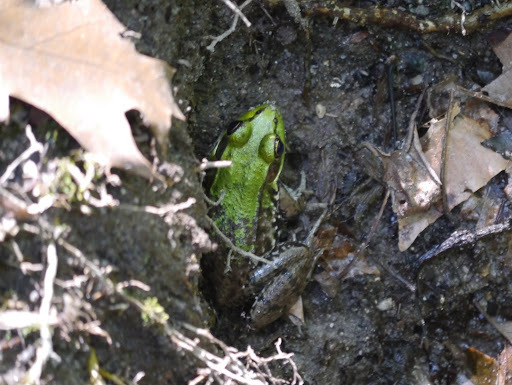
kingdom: Animalia
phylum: Chordata
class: Amphibia
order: Anura
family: Ranidae
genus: Lithobates
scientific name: Lithobates clamitans
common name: Green frog
